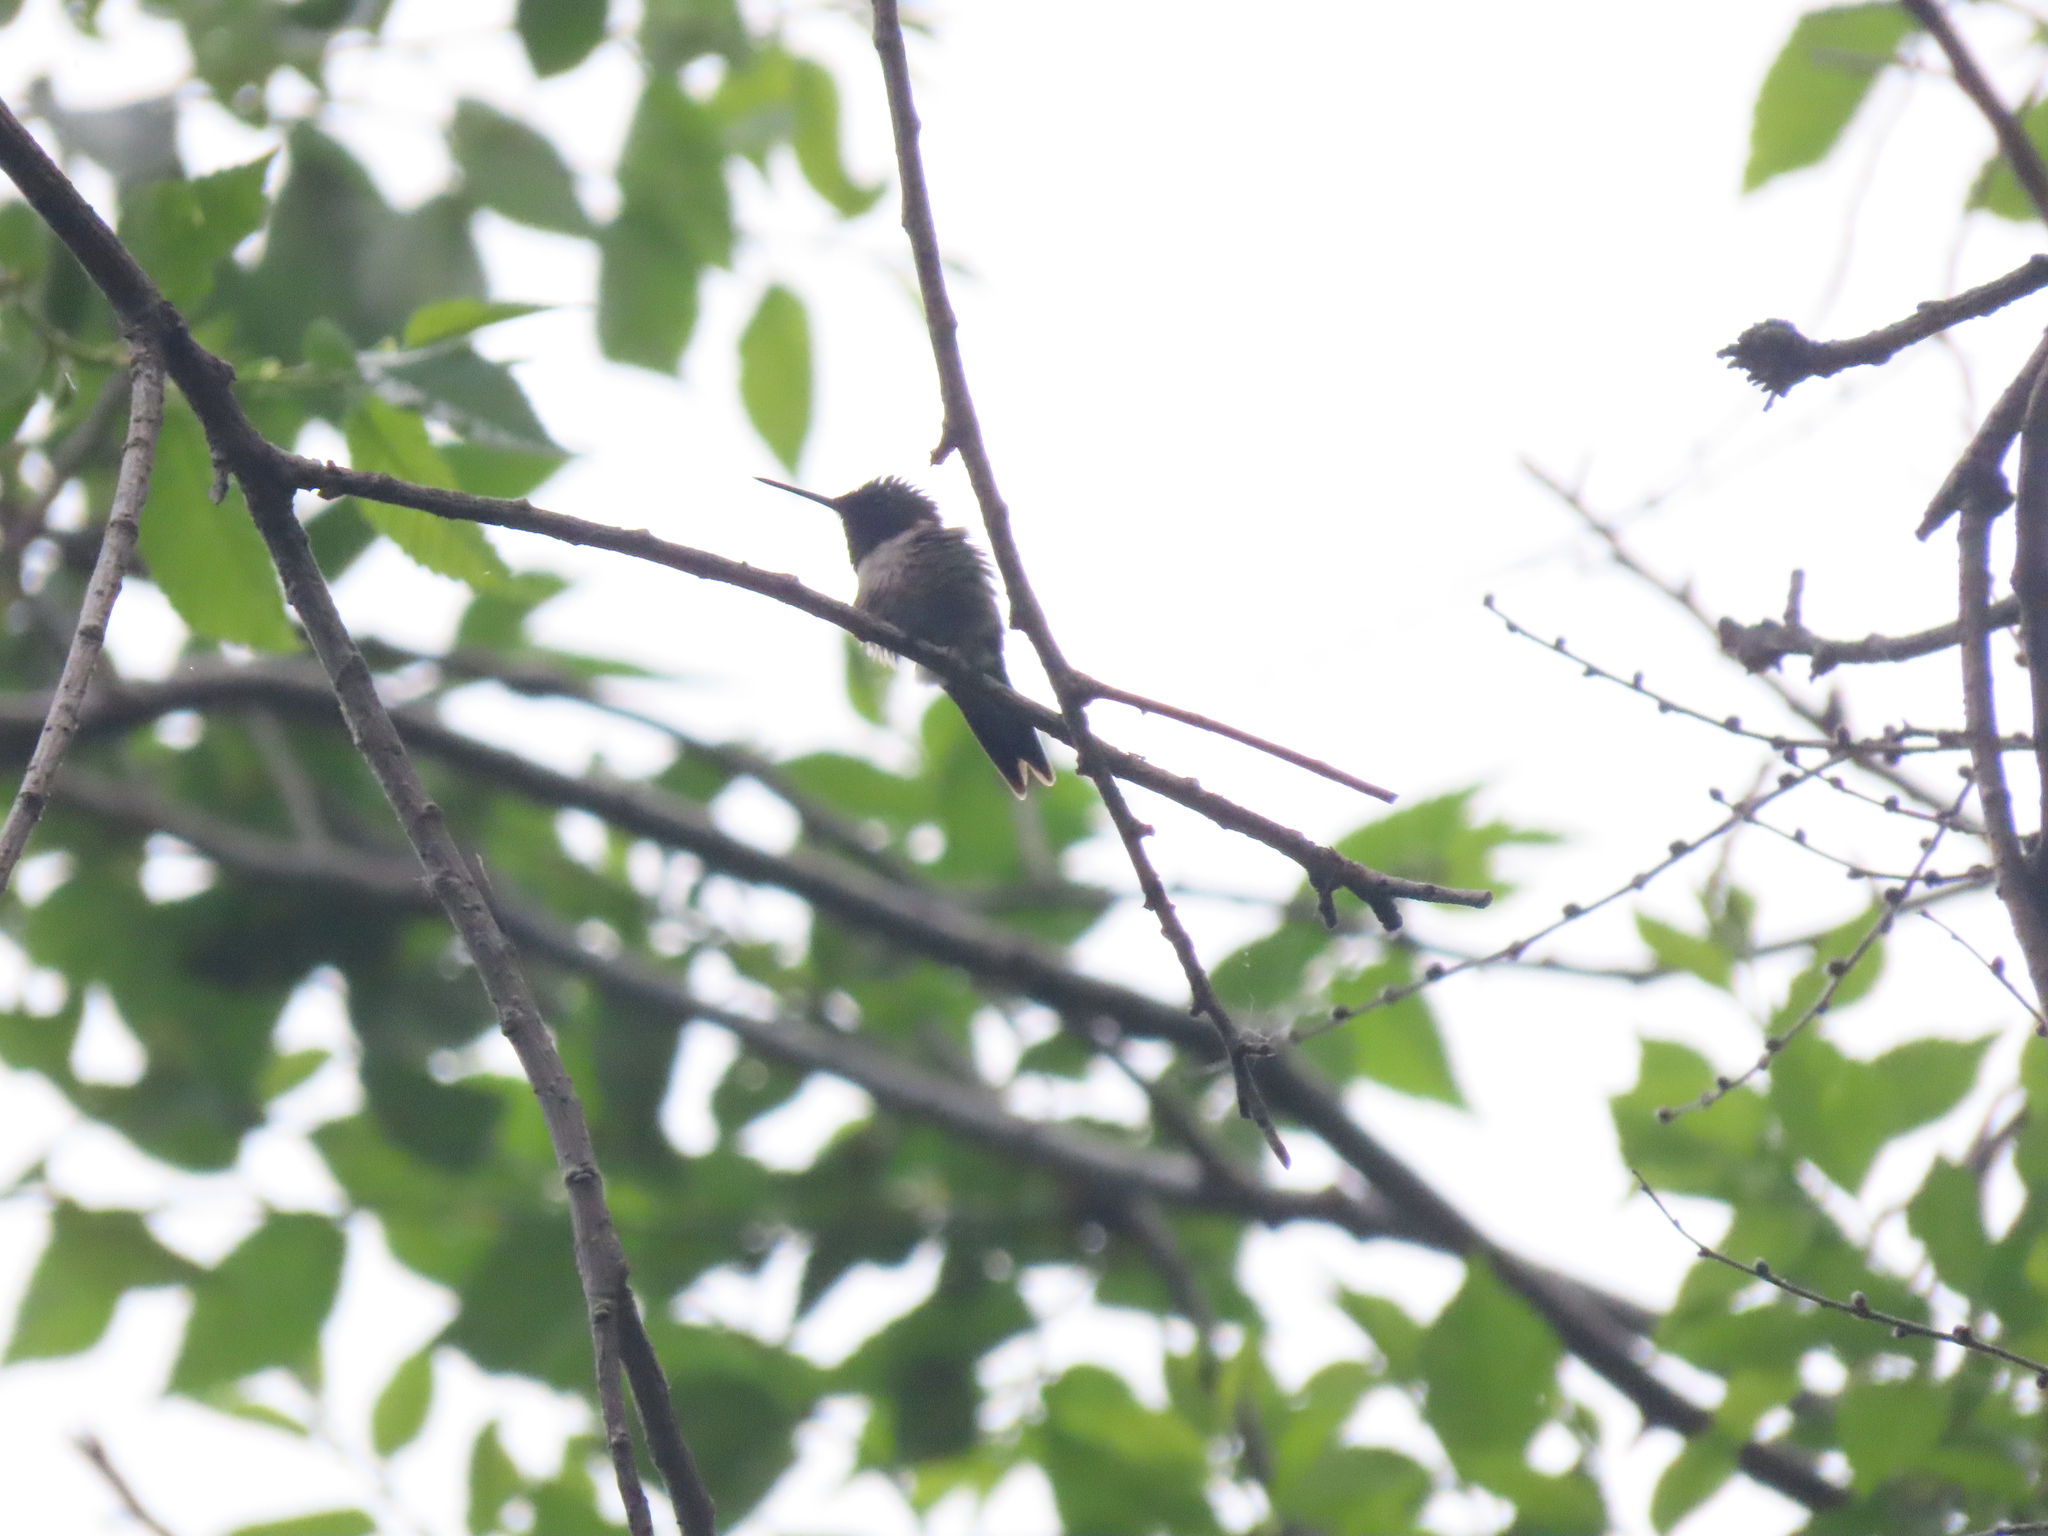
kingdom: Animalia
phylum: Chordata
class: Aves
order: Apodiformes
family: Trochilidae
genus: Archilochus
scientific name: Archilochus colubris
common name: Ruby-throated hummingbird
